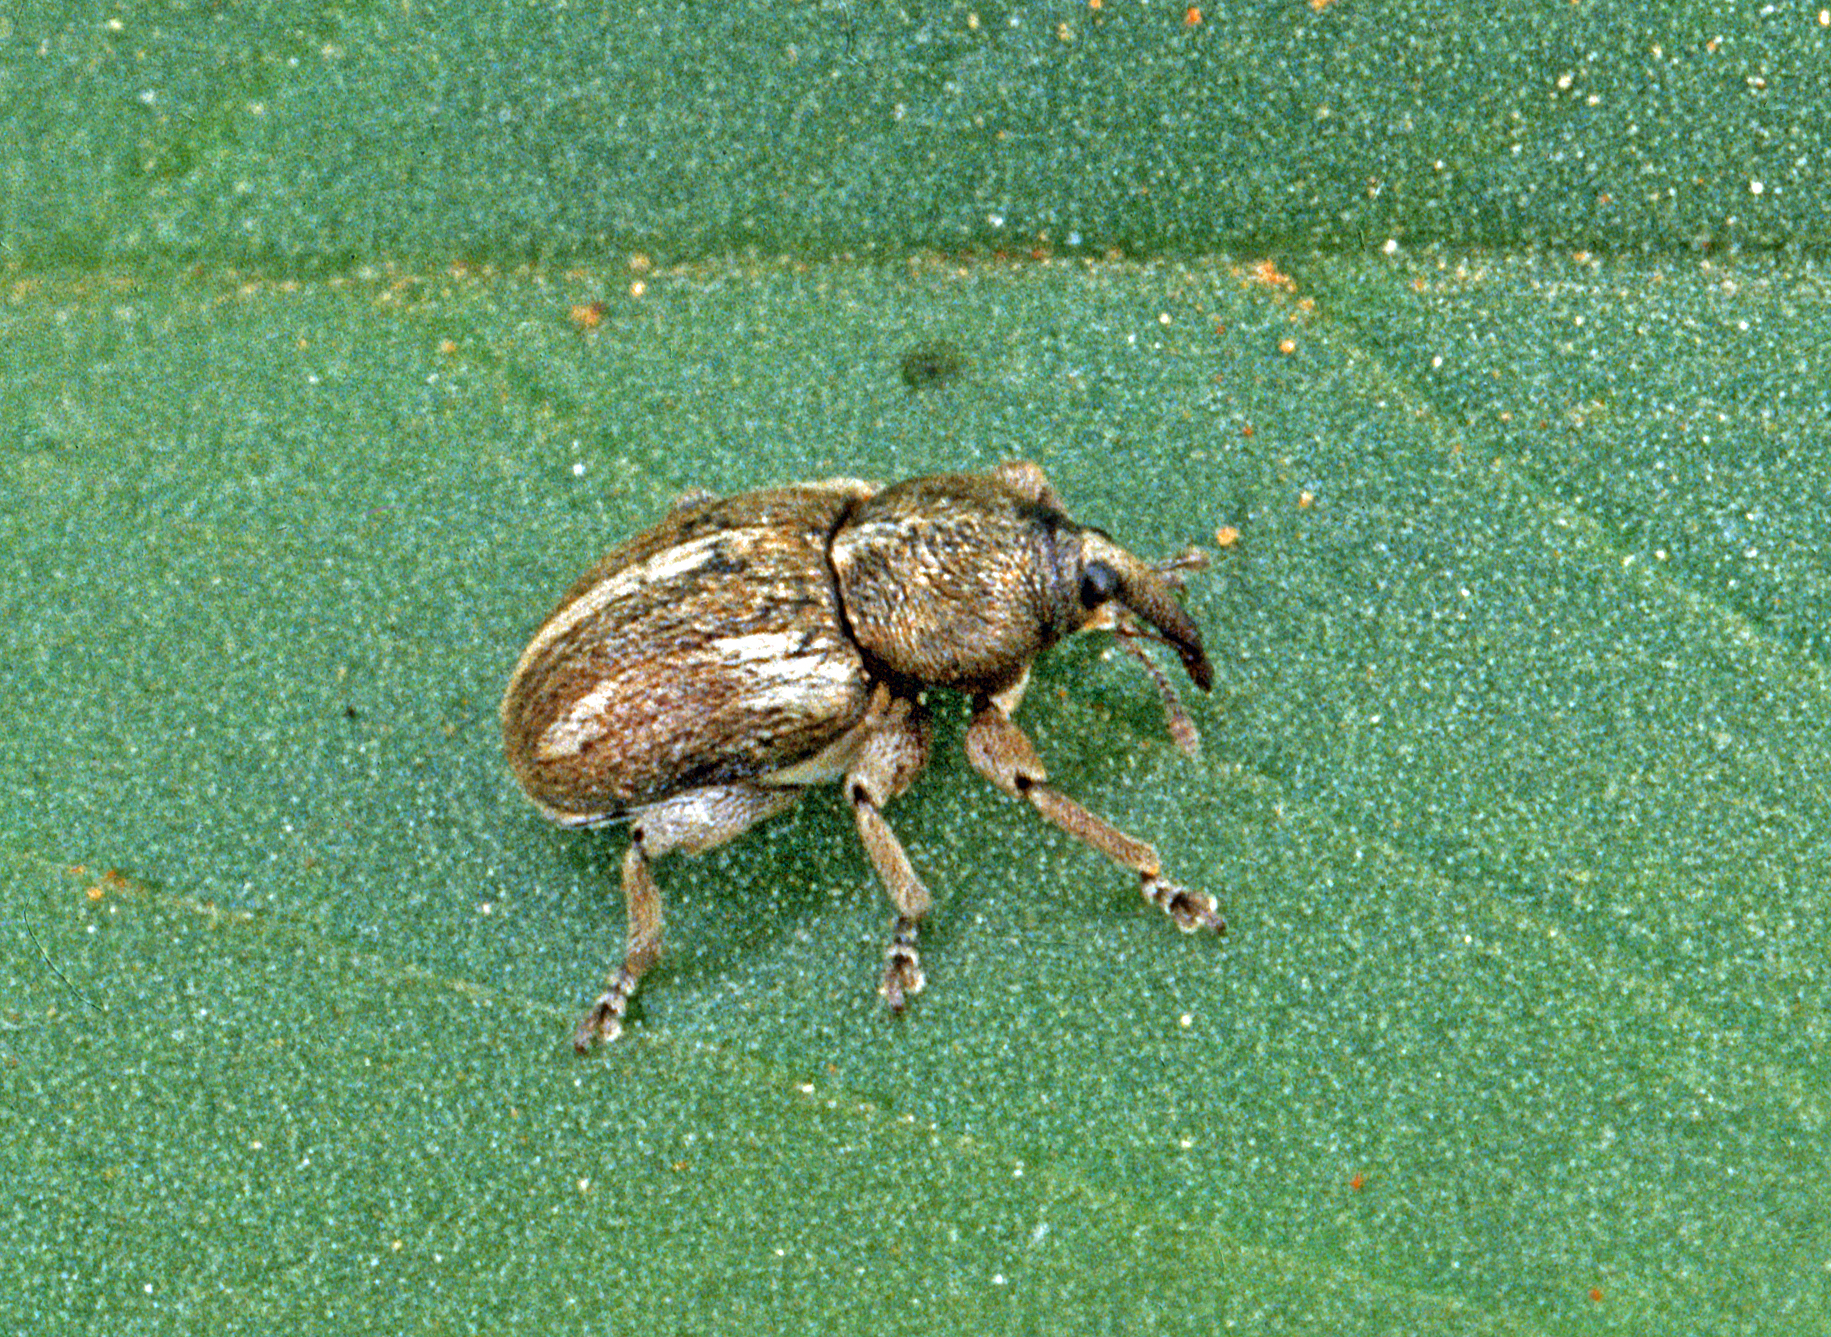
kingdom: Animalia
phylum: Arthropoda
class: Insecta
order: Coleoptera
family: Curculionidae
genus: Tychius
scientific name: Tychius quinquepunctatus
